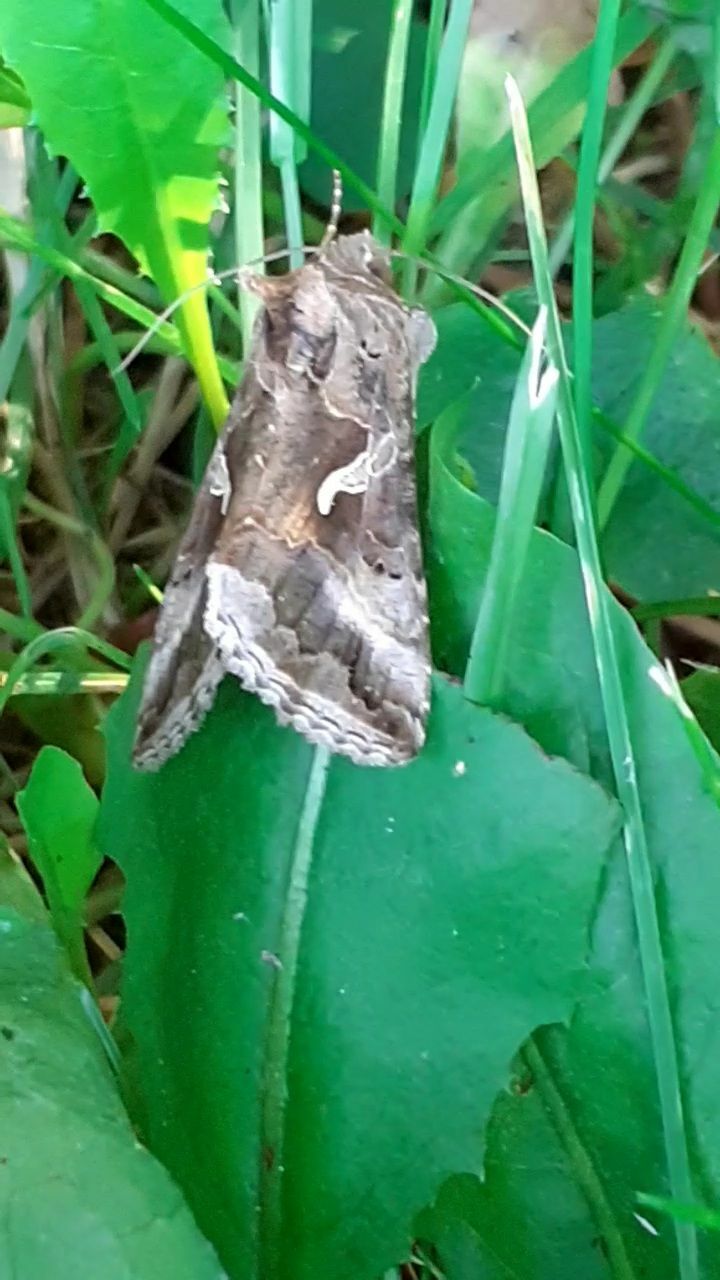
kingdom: Animalia
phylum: Arthropoda
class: Insecta
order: Lepidoptera
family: Noctuidae
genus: Autographa
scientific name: Autographa gamma
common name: Silver y
